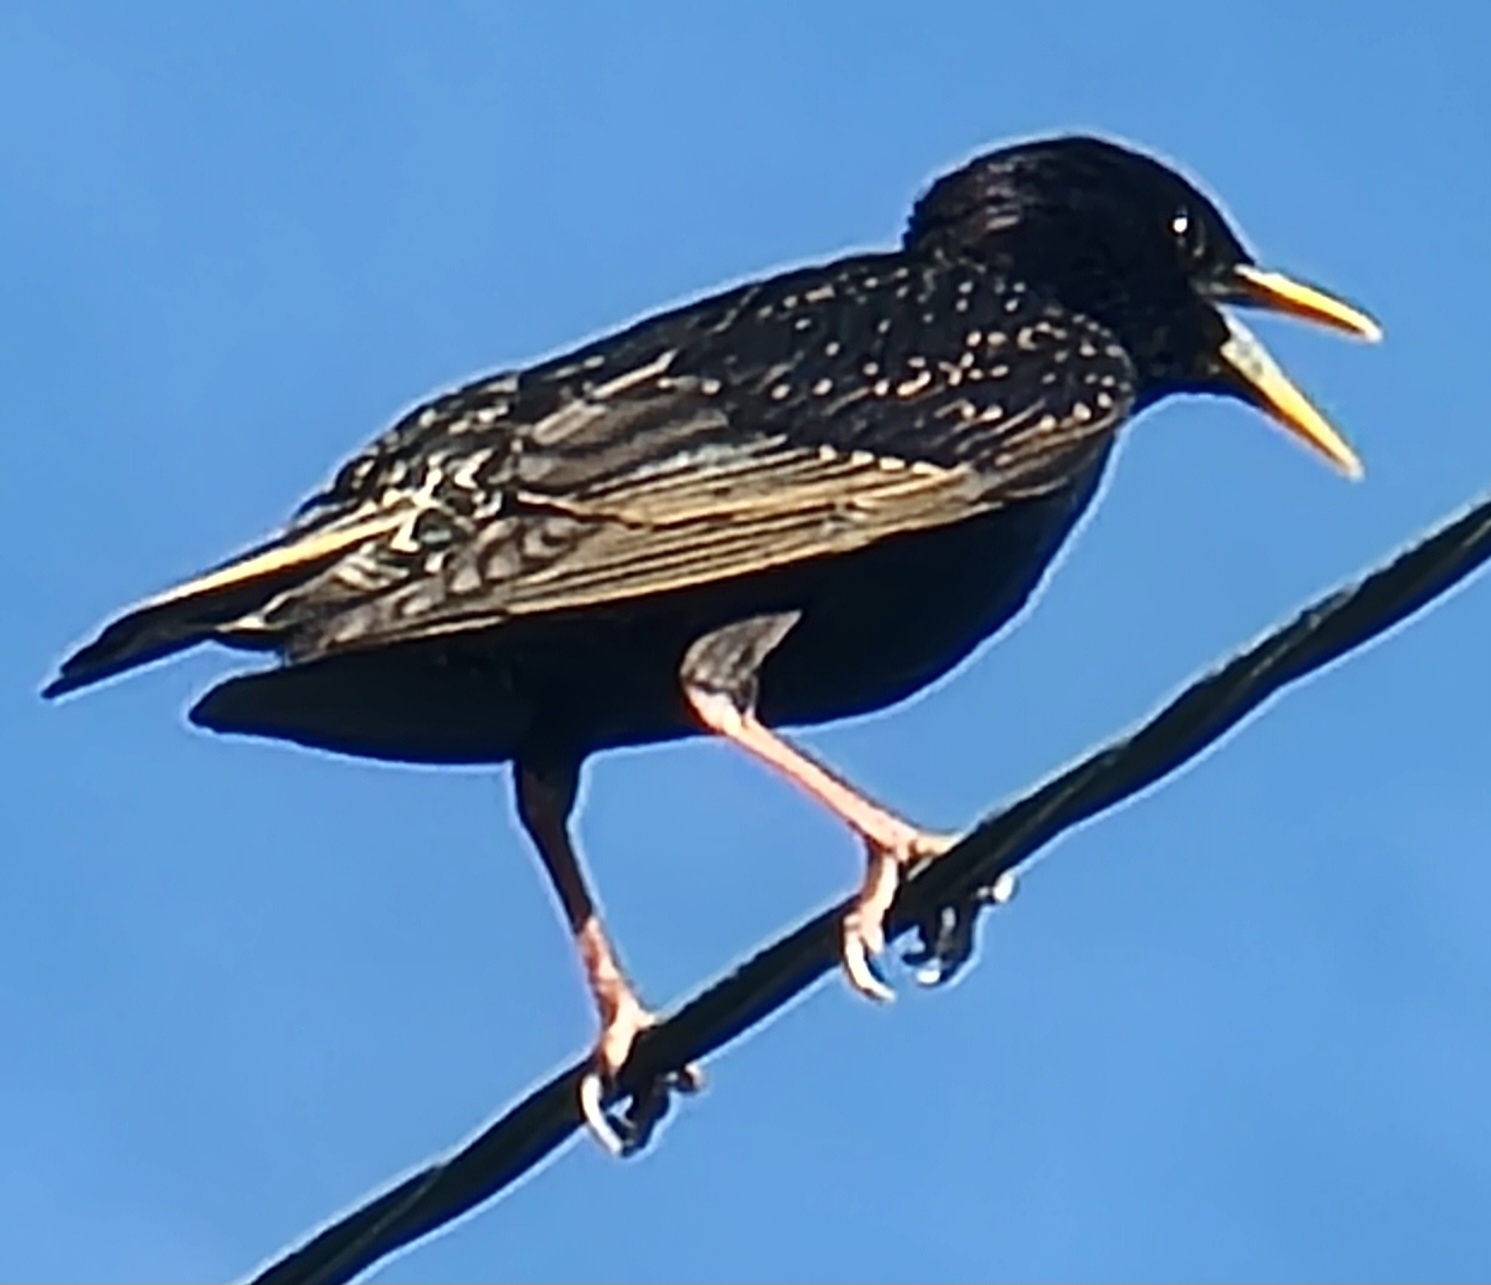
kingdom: Animalia
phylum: Chordata
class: Aves
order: Passeriformes
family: Sturnidae
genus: Sturnus
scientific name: Sturnus vulgaris
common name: Common starling
